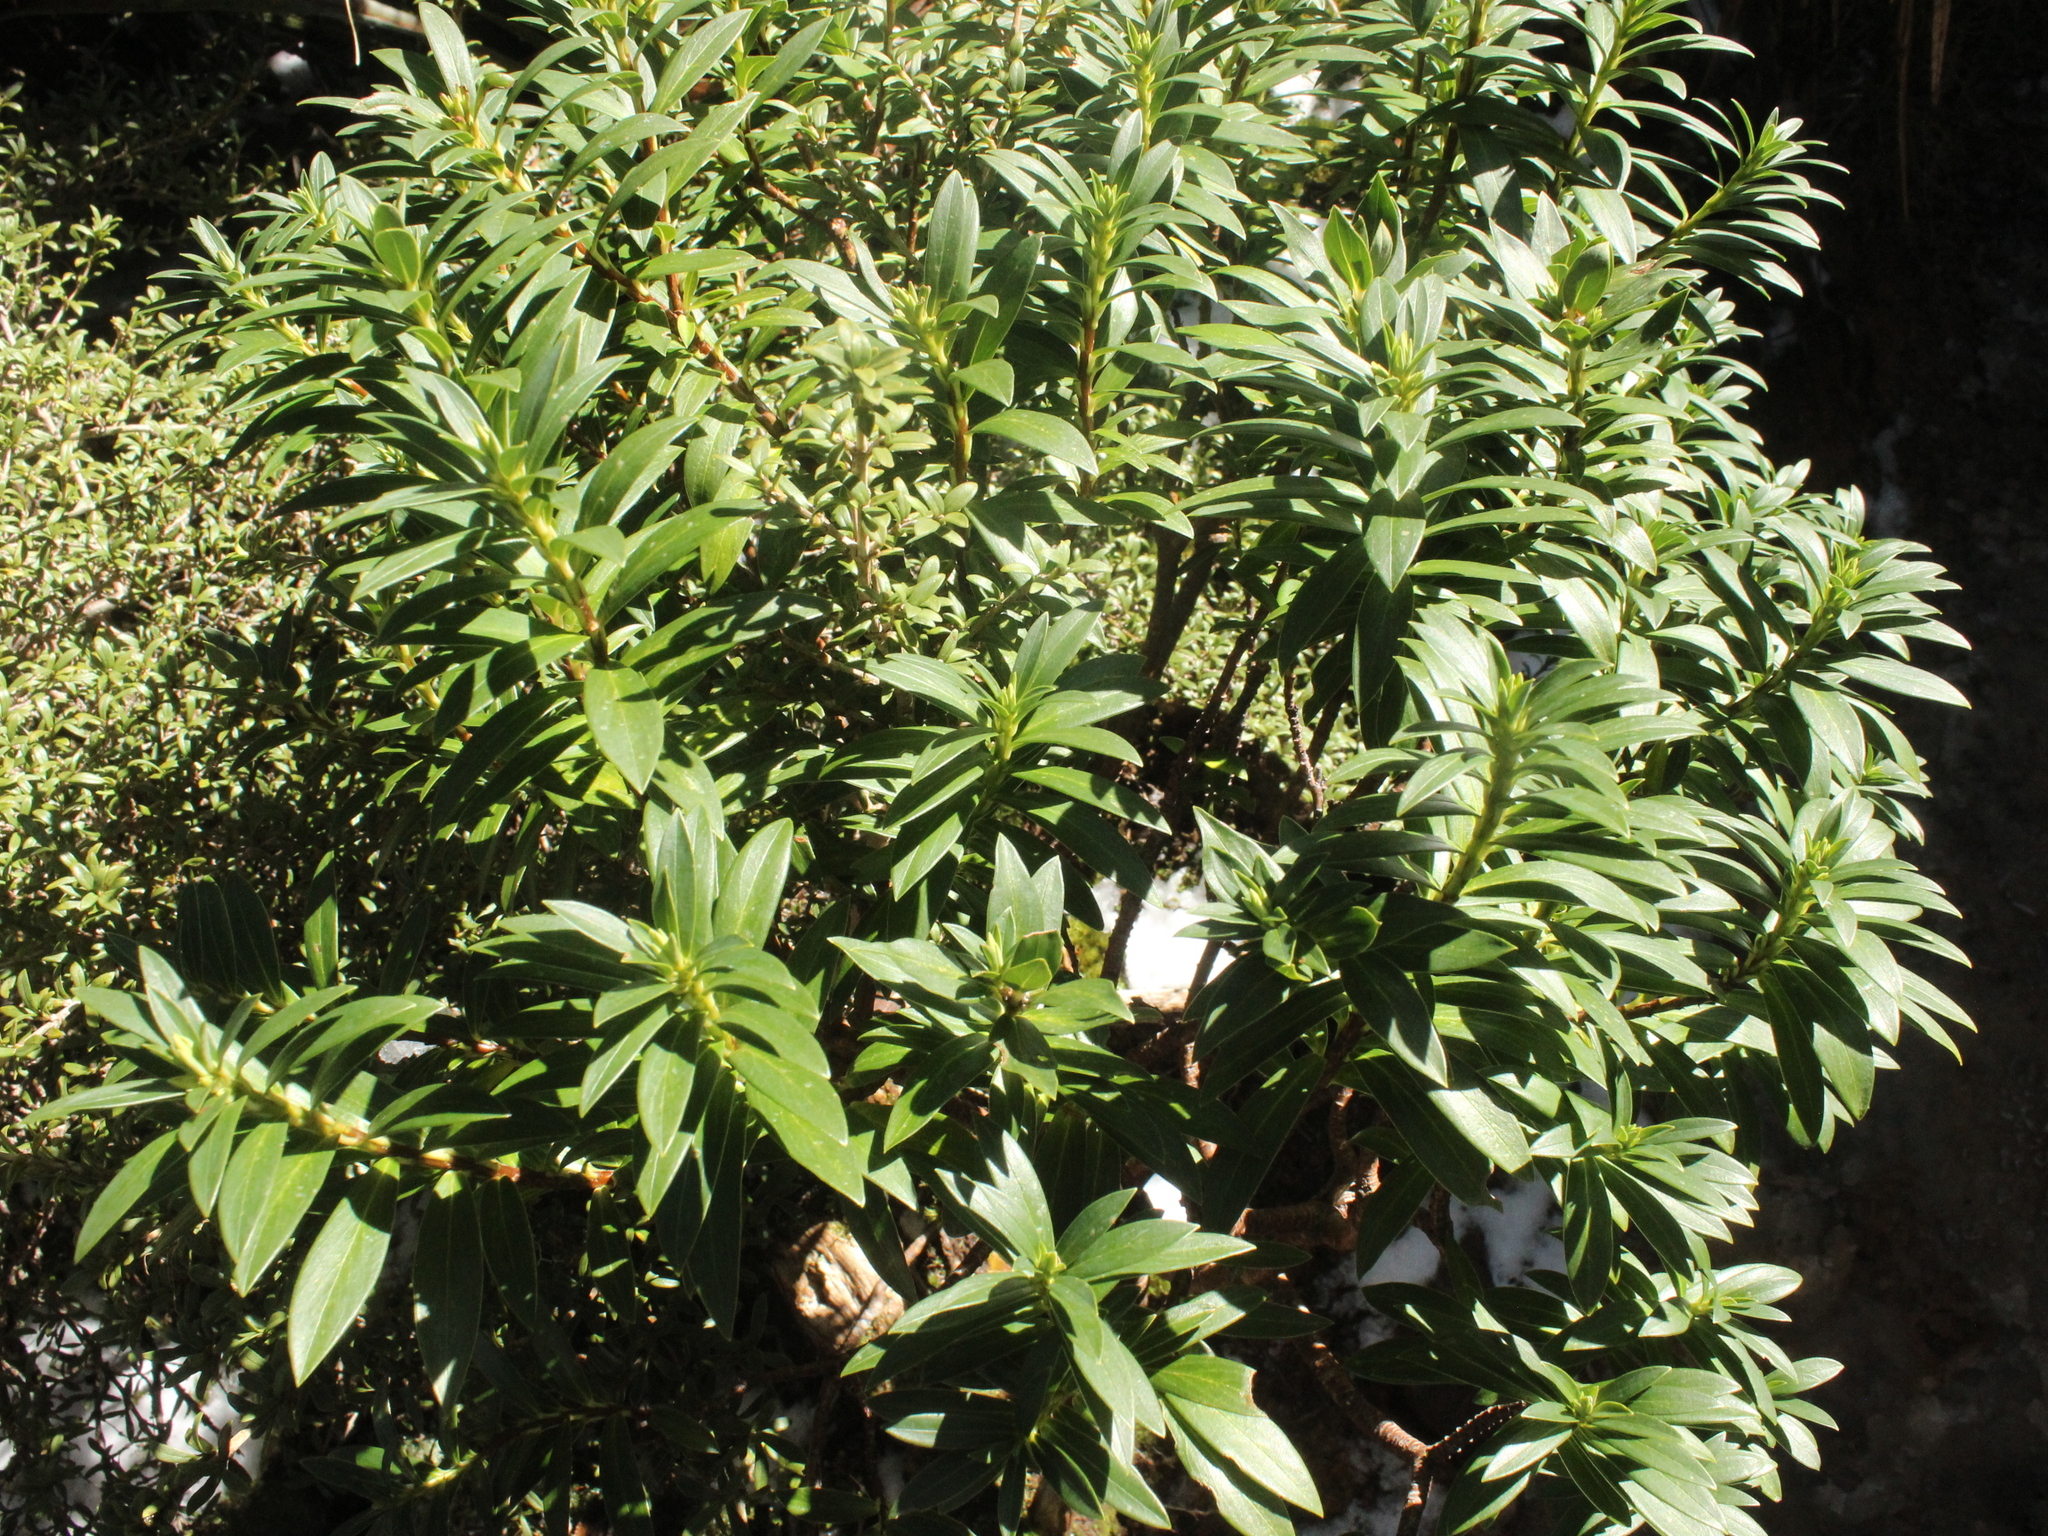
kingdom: Plantae
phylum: Tracheophyta
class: Magnoliopsida
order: Malvales
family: Thymelaeaceae
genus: Pimelea
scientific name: Pimelea gnidia
